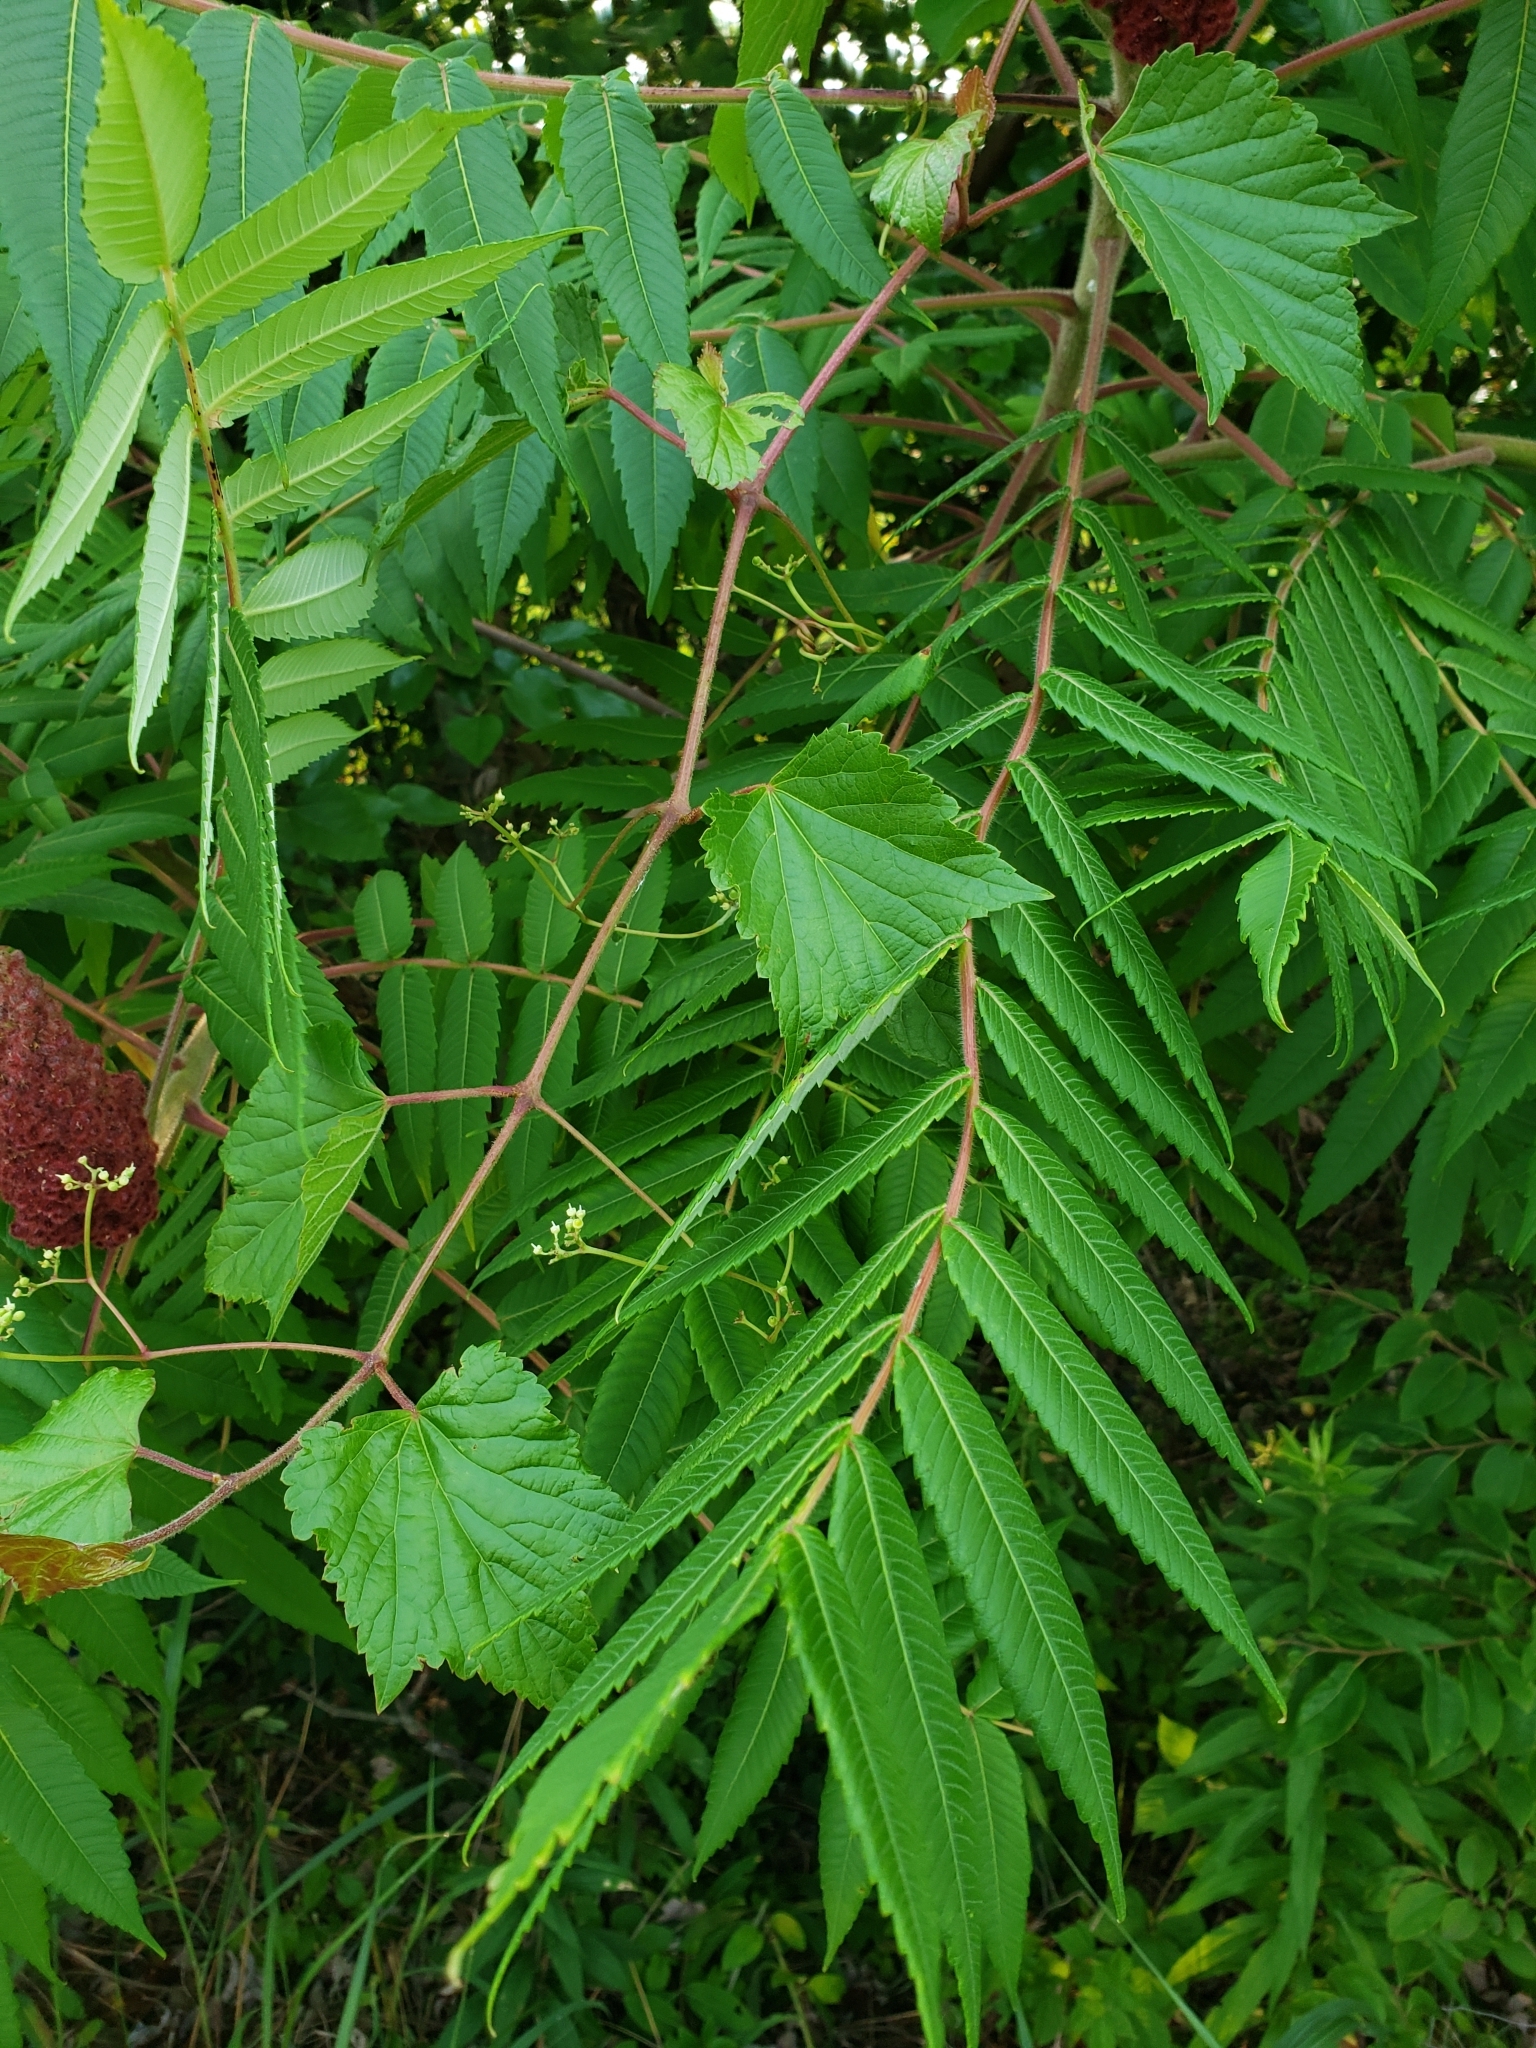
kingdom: Plantae
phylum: Tracheophyta
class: Magnoliopsida
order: Sapindales
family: Anacardiaceae
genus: Rhus
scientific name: Rhus typhina
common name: Staghorn sumac
